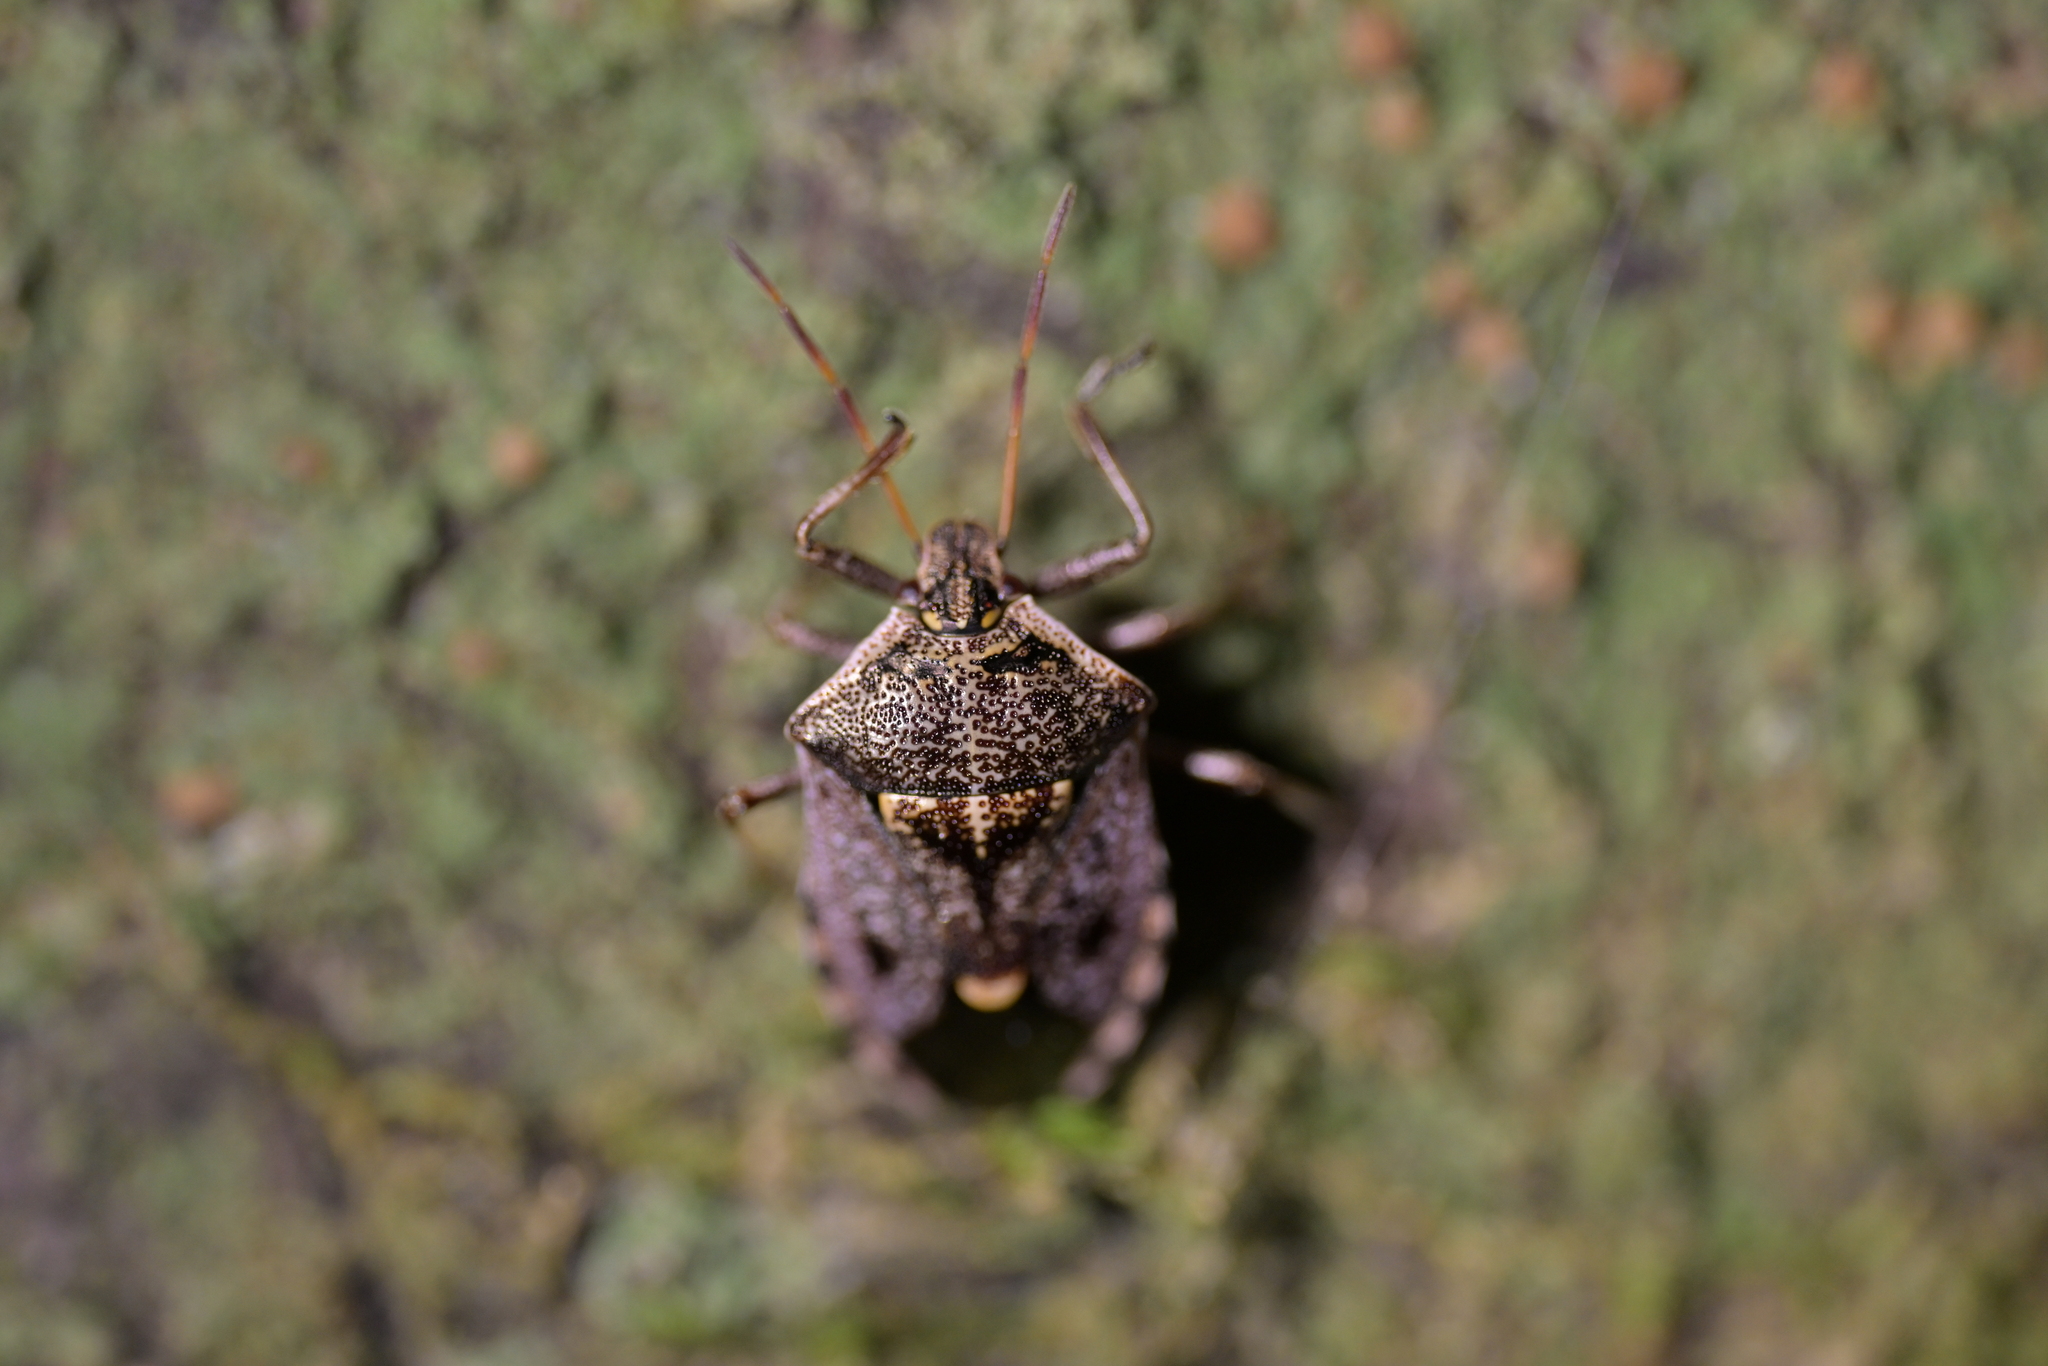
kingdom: Animalia
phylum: Arthropoda
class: Insecta
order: Hemiptera
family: Pentatomidae
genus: Cermatulus
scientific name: Cermatulus nasalis
